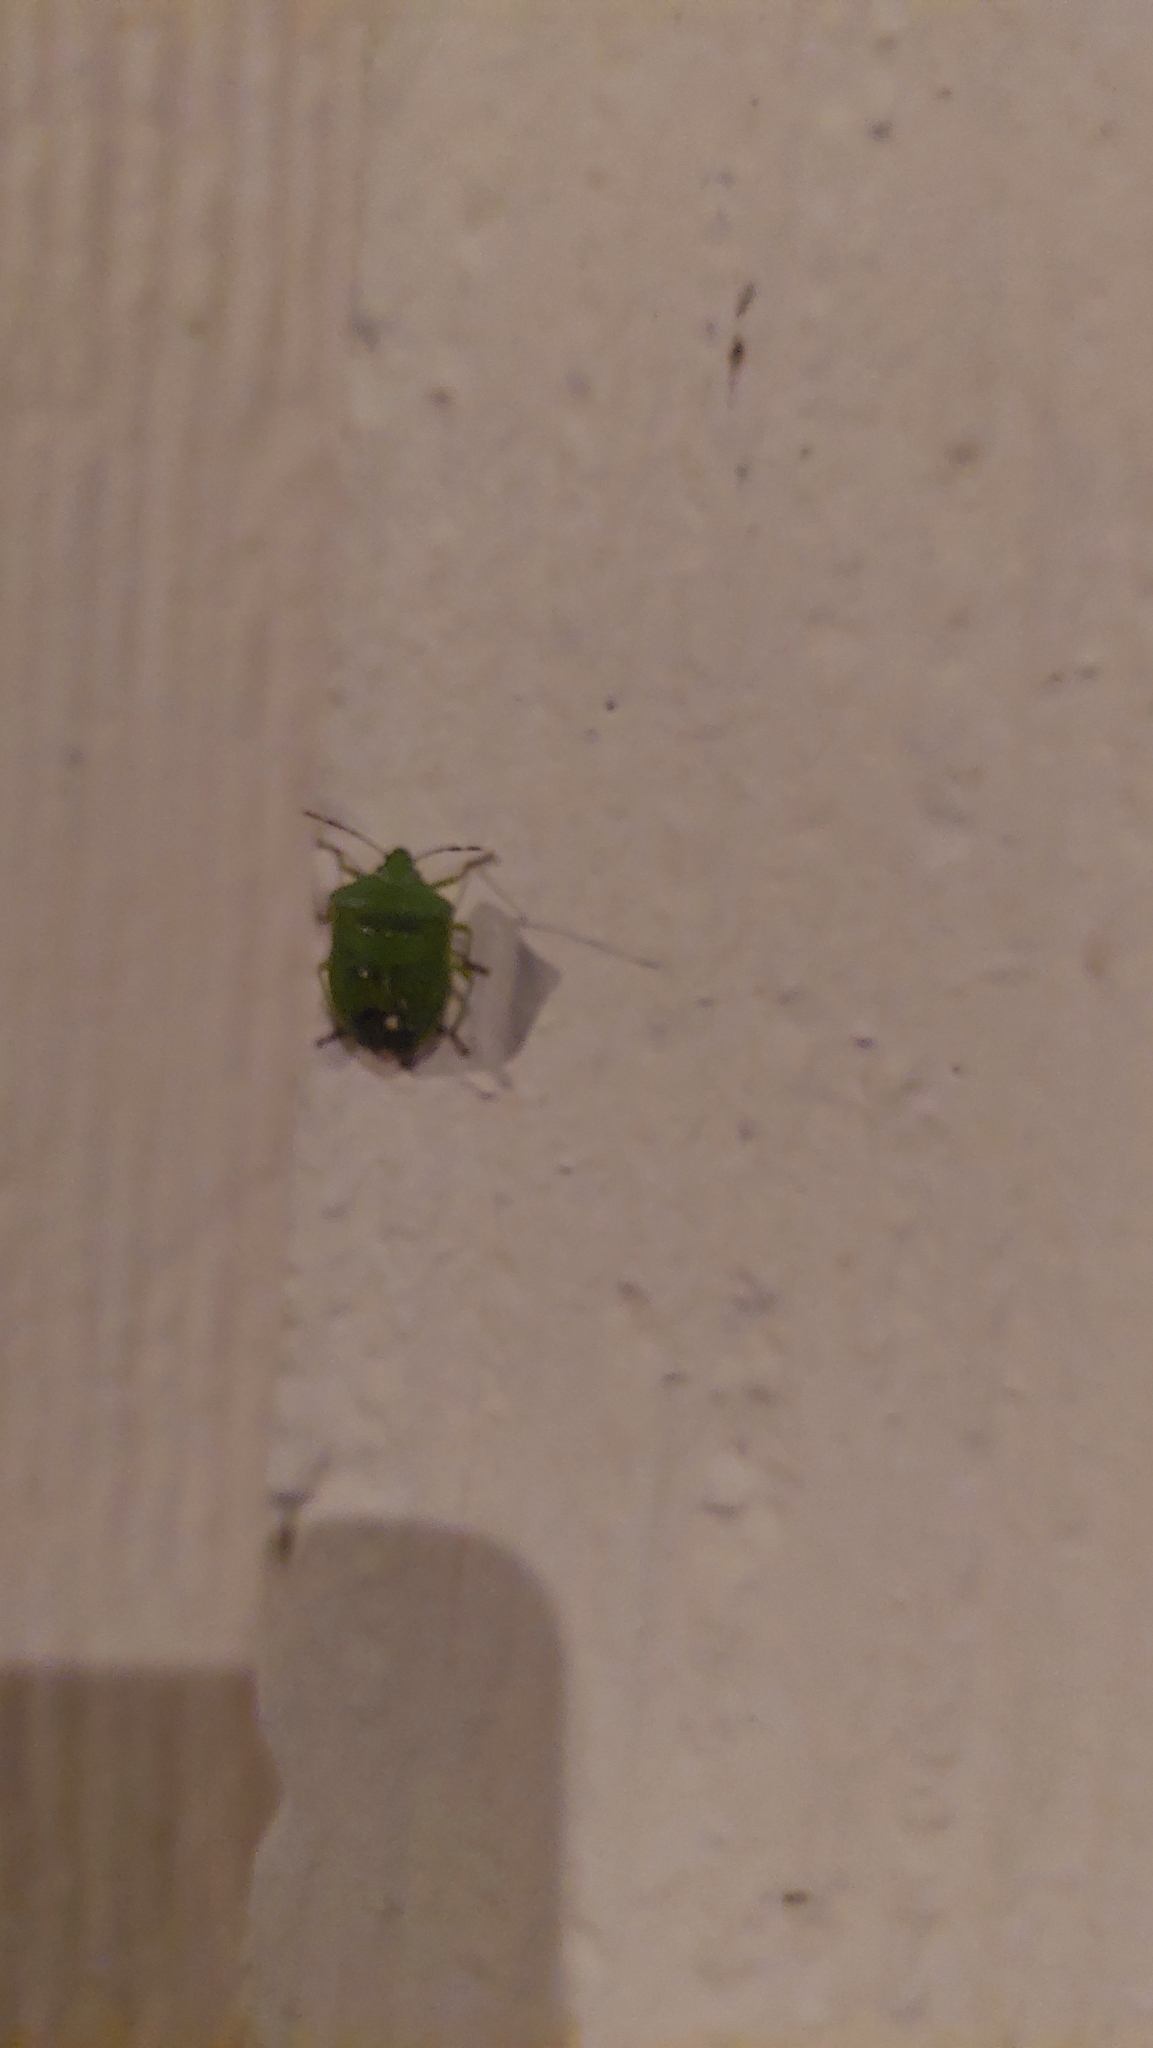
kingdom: Animalia
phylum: Arthropoda
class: Insecta
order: Hemiptera
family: Pentatomidae
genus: Nezara
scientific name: Nezara viridula
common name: Southern green stink bug
